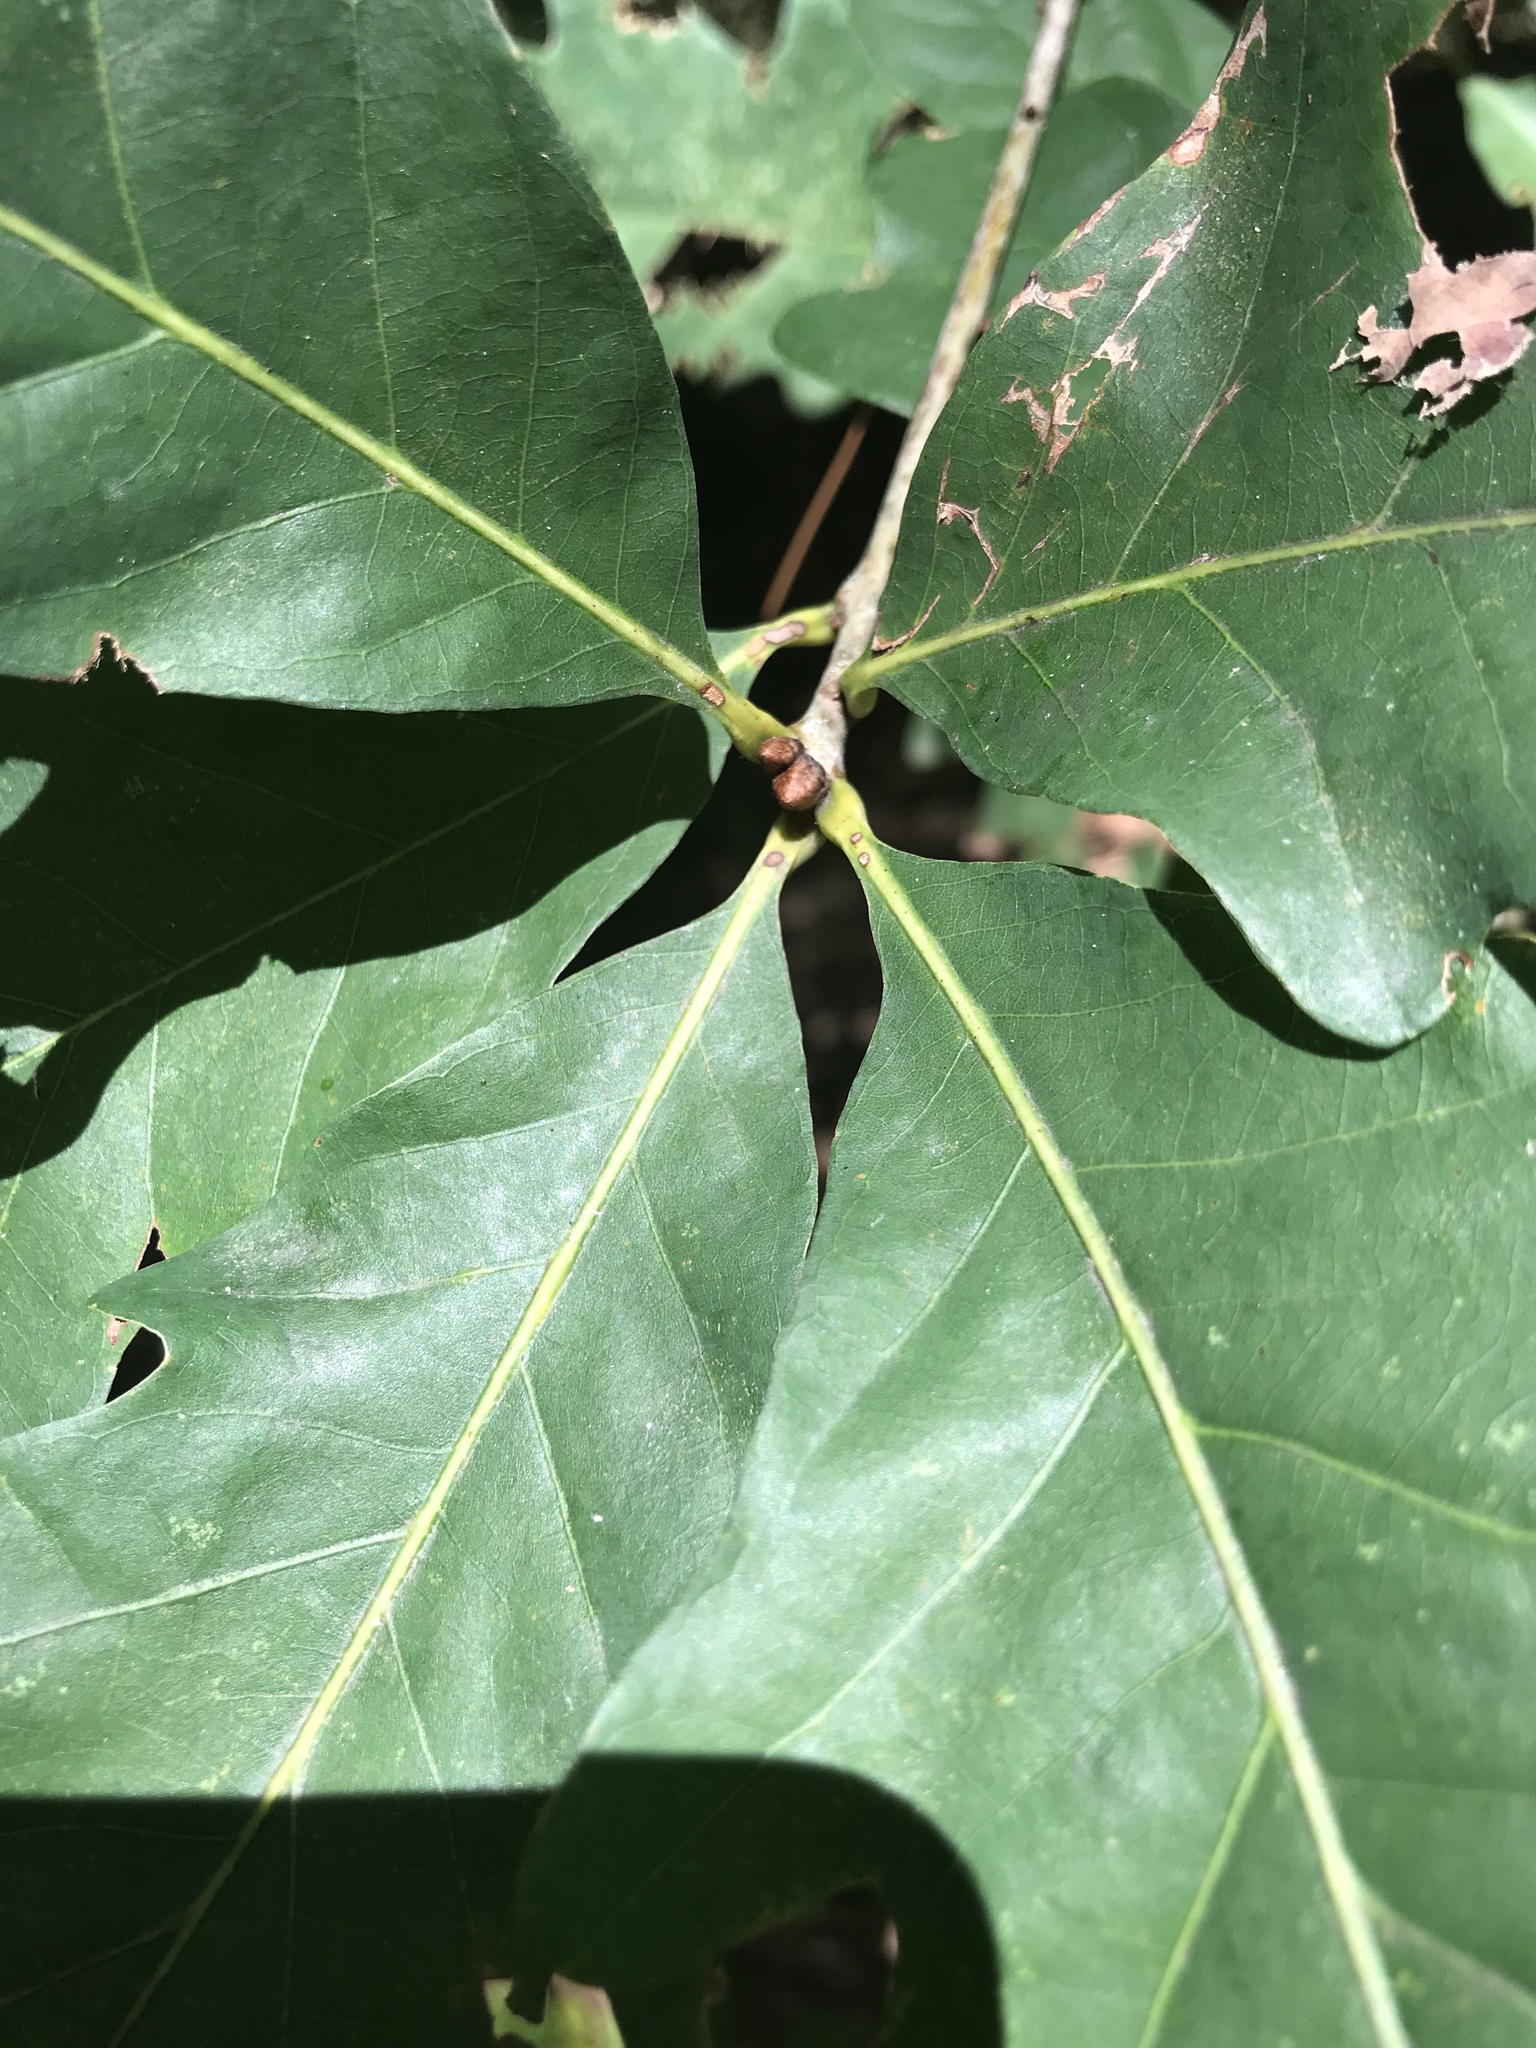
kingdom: Plantae
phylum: Tracheophyta
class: Magnoliopsida
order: Fagales
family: Fagaceae
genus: Quercus
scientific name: Quercus alba
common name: White oak
